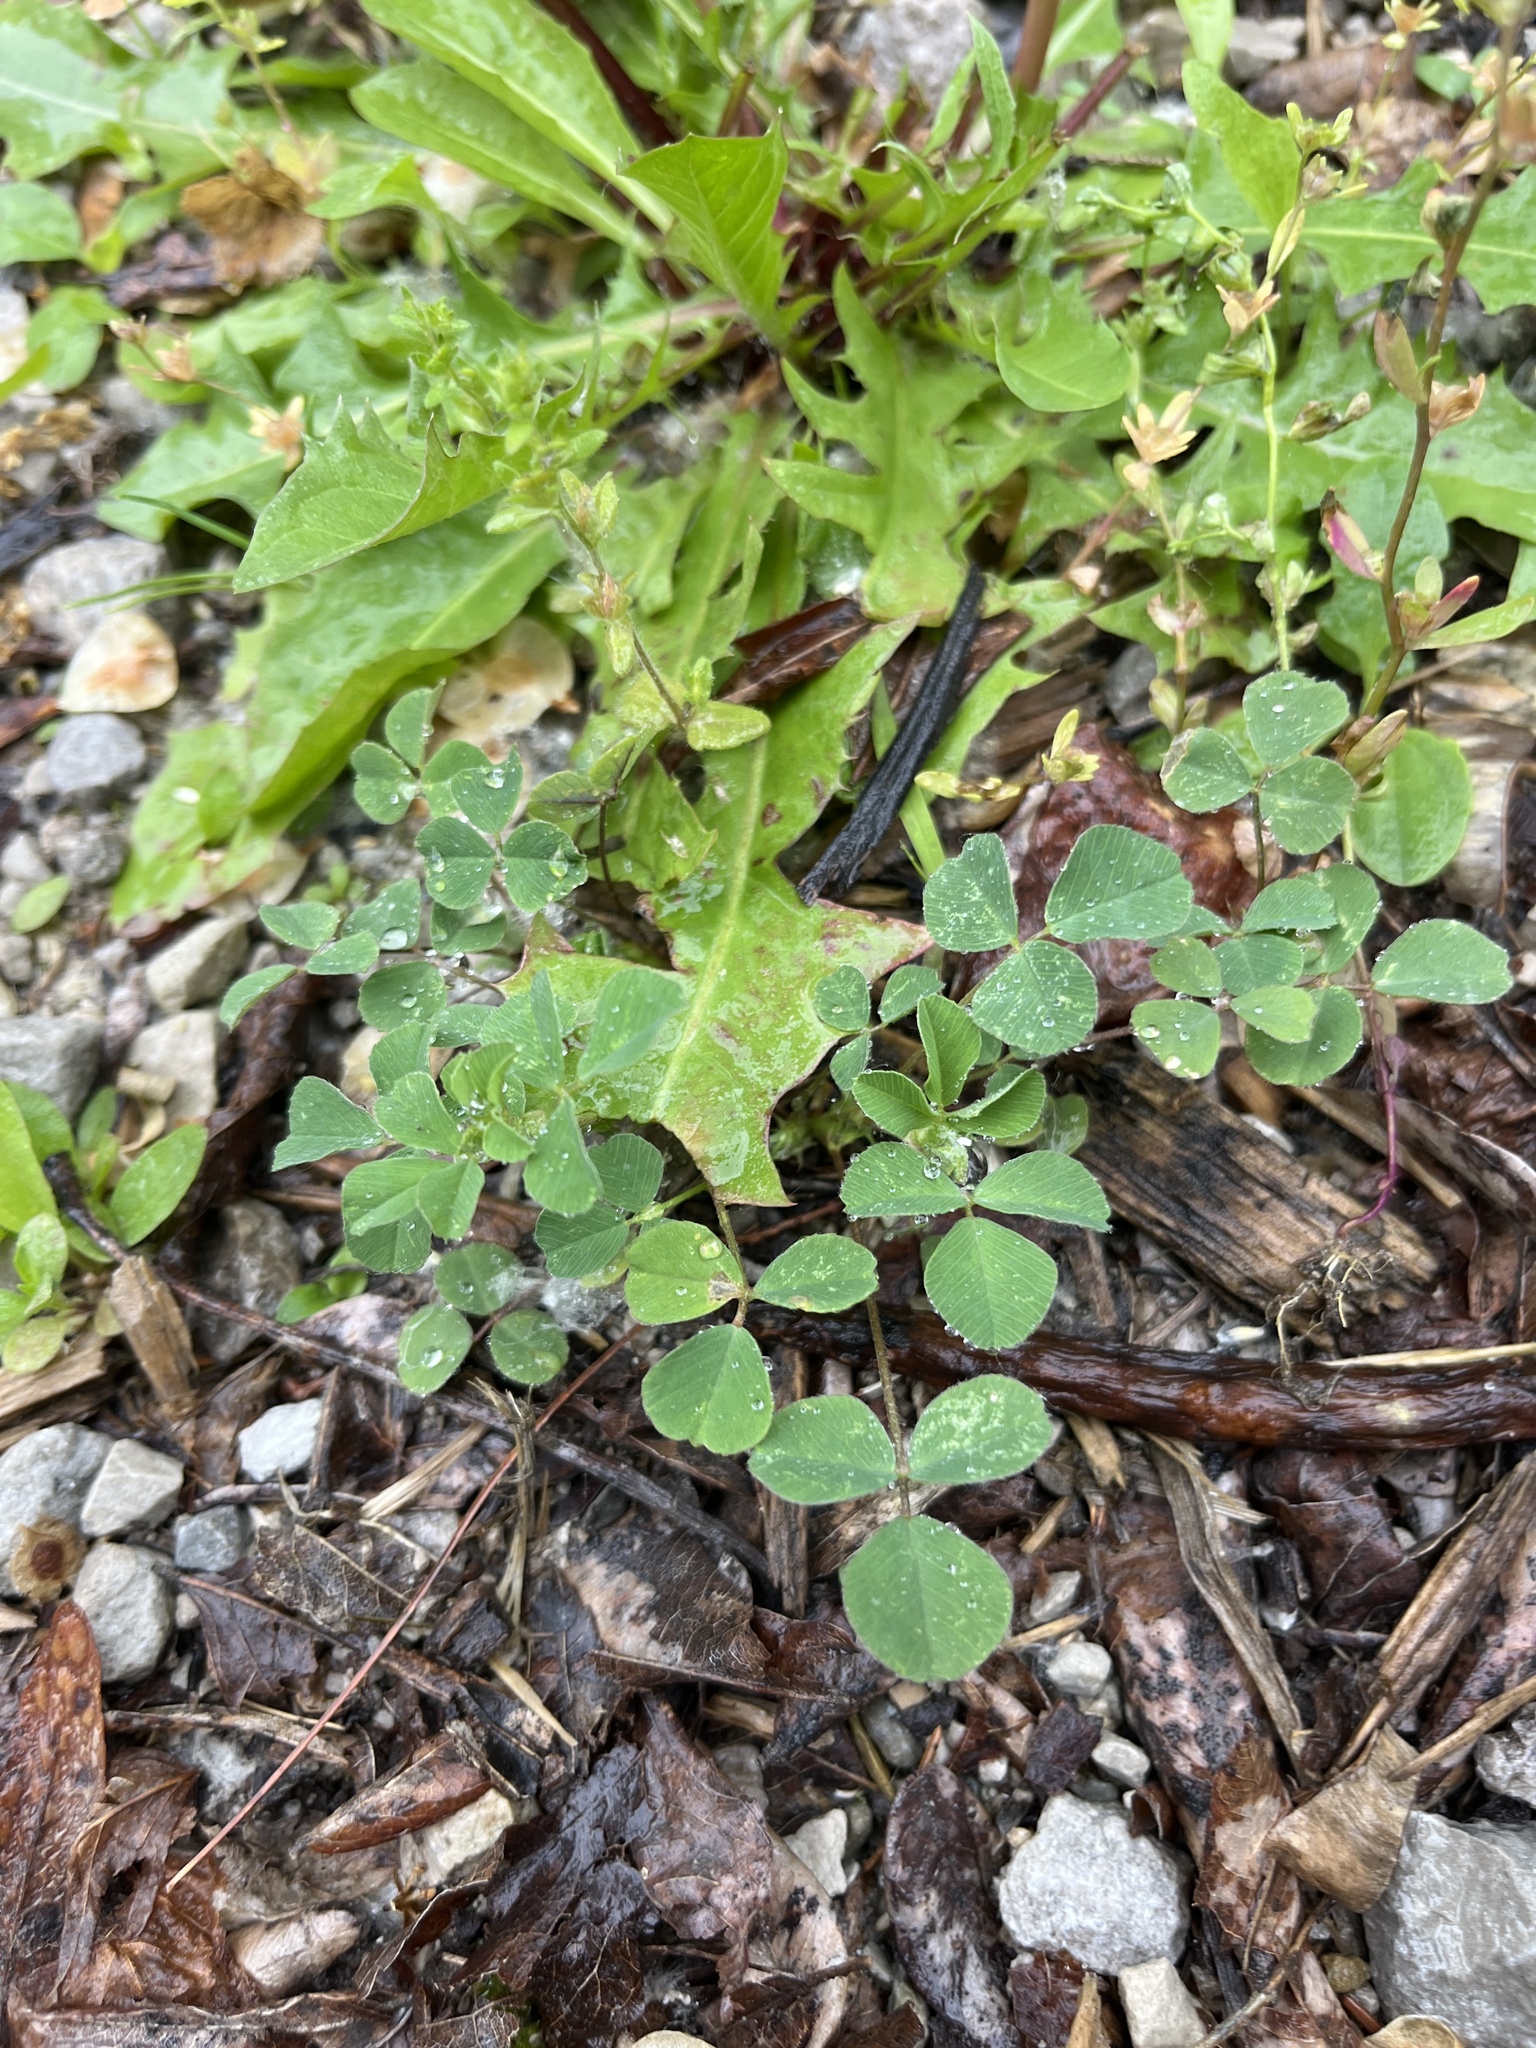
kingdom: Plantae
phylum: Tracheophyta
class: Magnoliopsida
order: Fabales
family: Fabaceae
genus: Medicago
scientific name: Medicago lupulina
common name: Black medick
